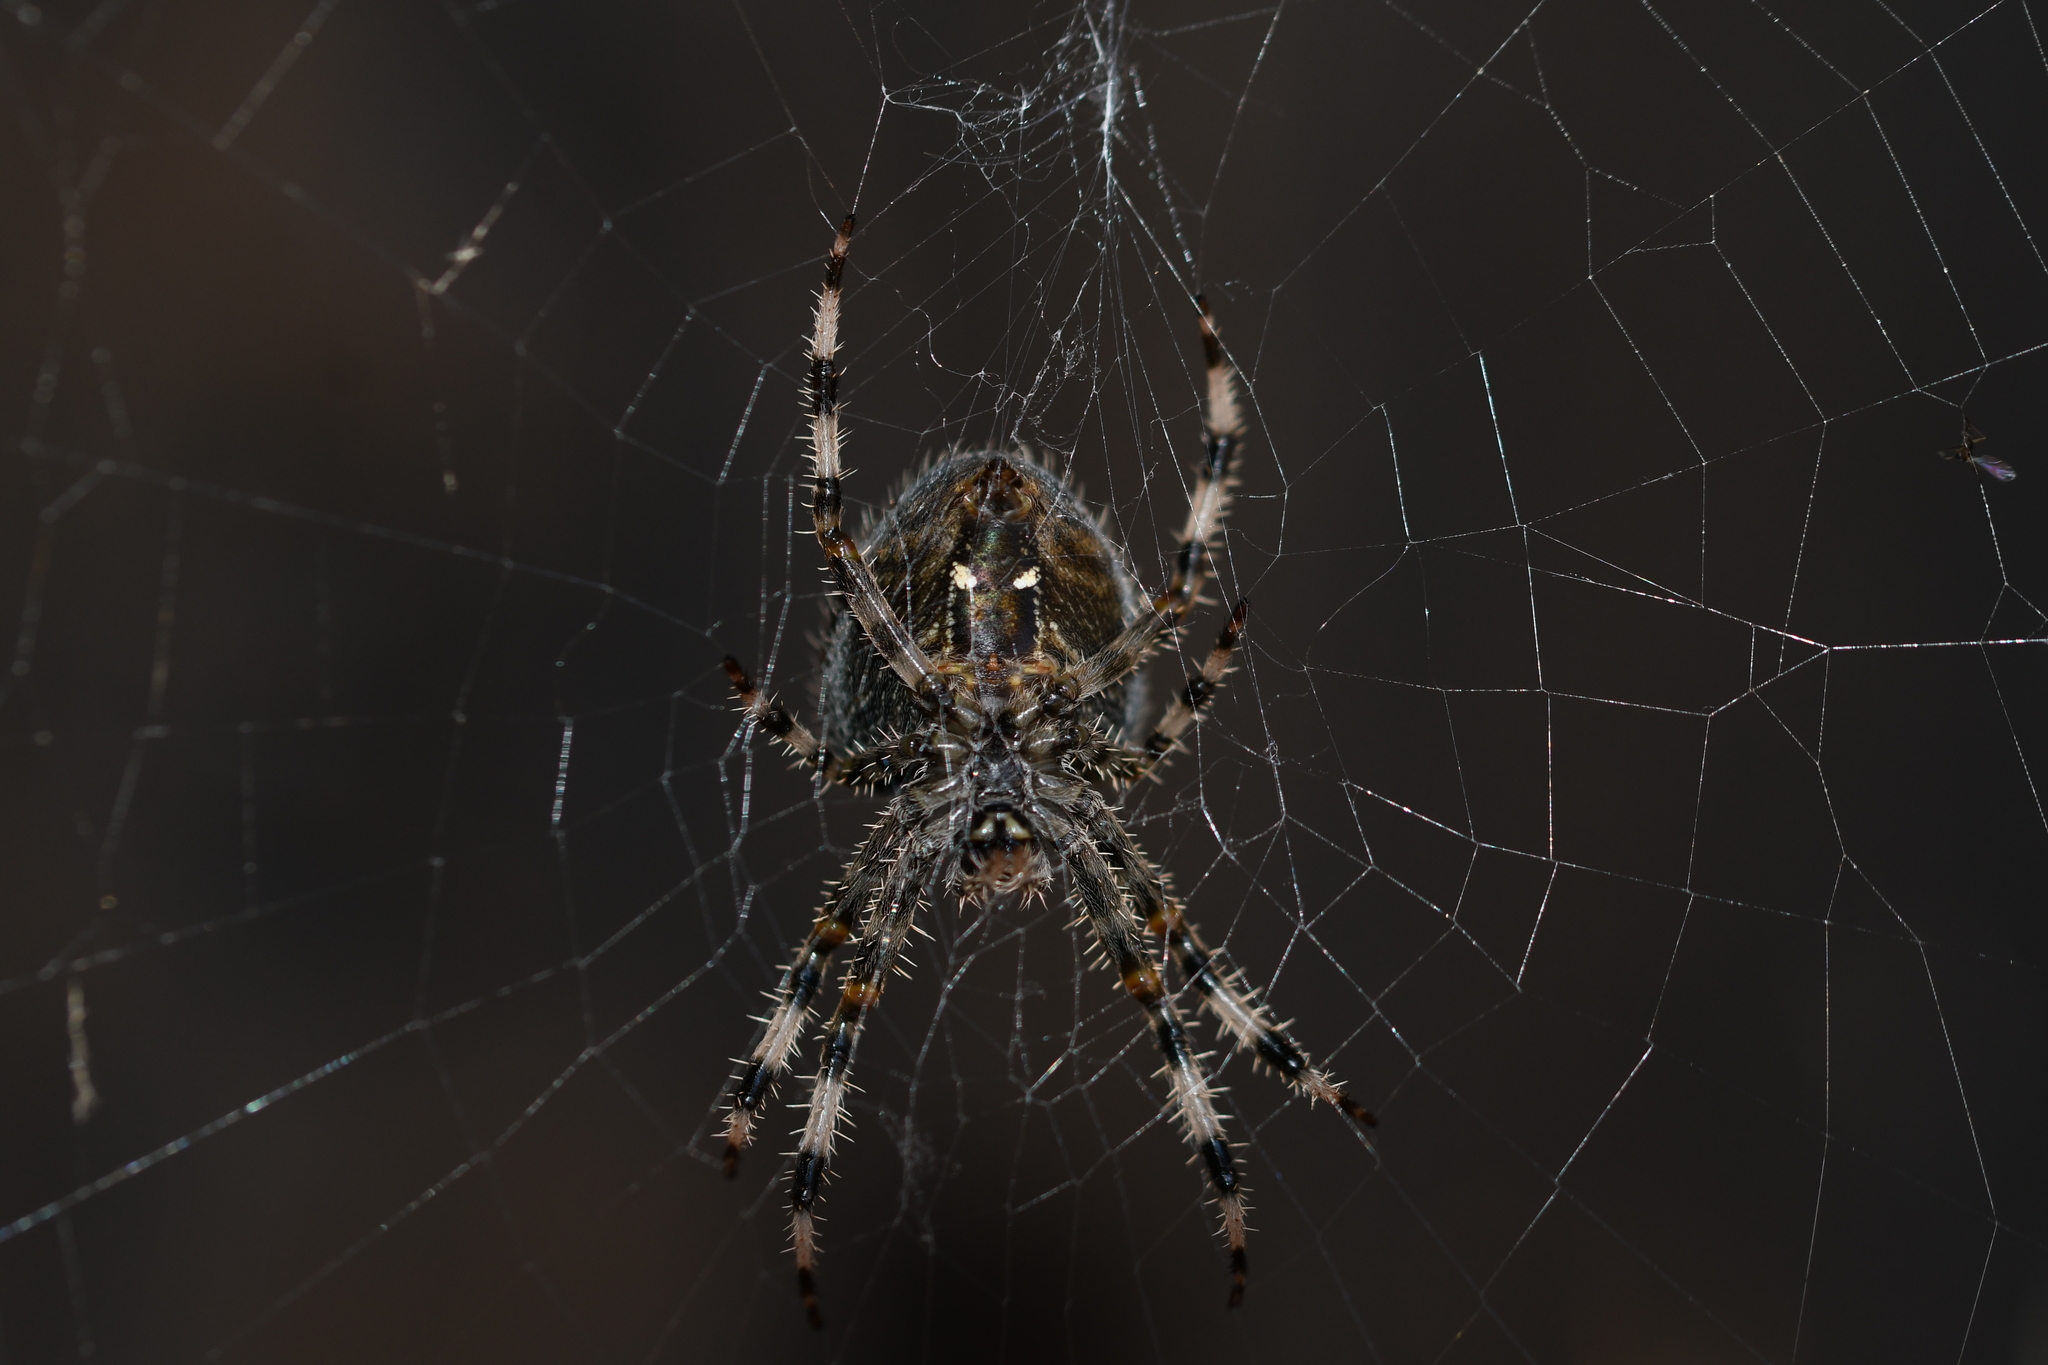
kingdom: Animalia
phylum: Arthropoda
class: Arachnida
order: Araneae
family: Araneidae
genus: Araneus
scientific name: Araneus pallidus
